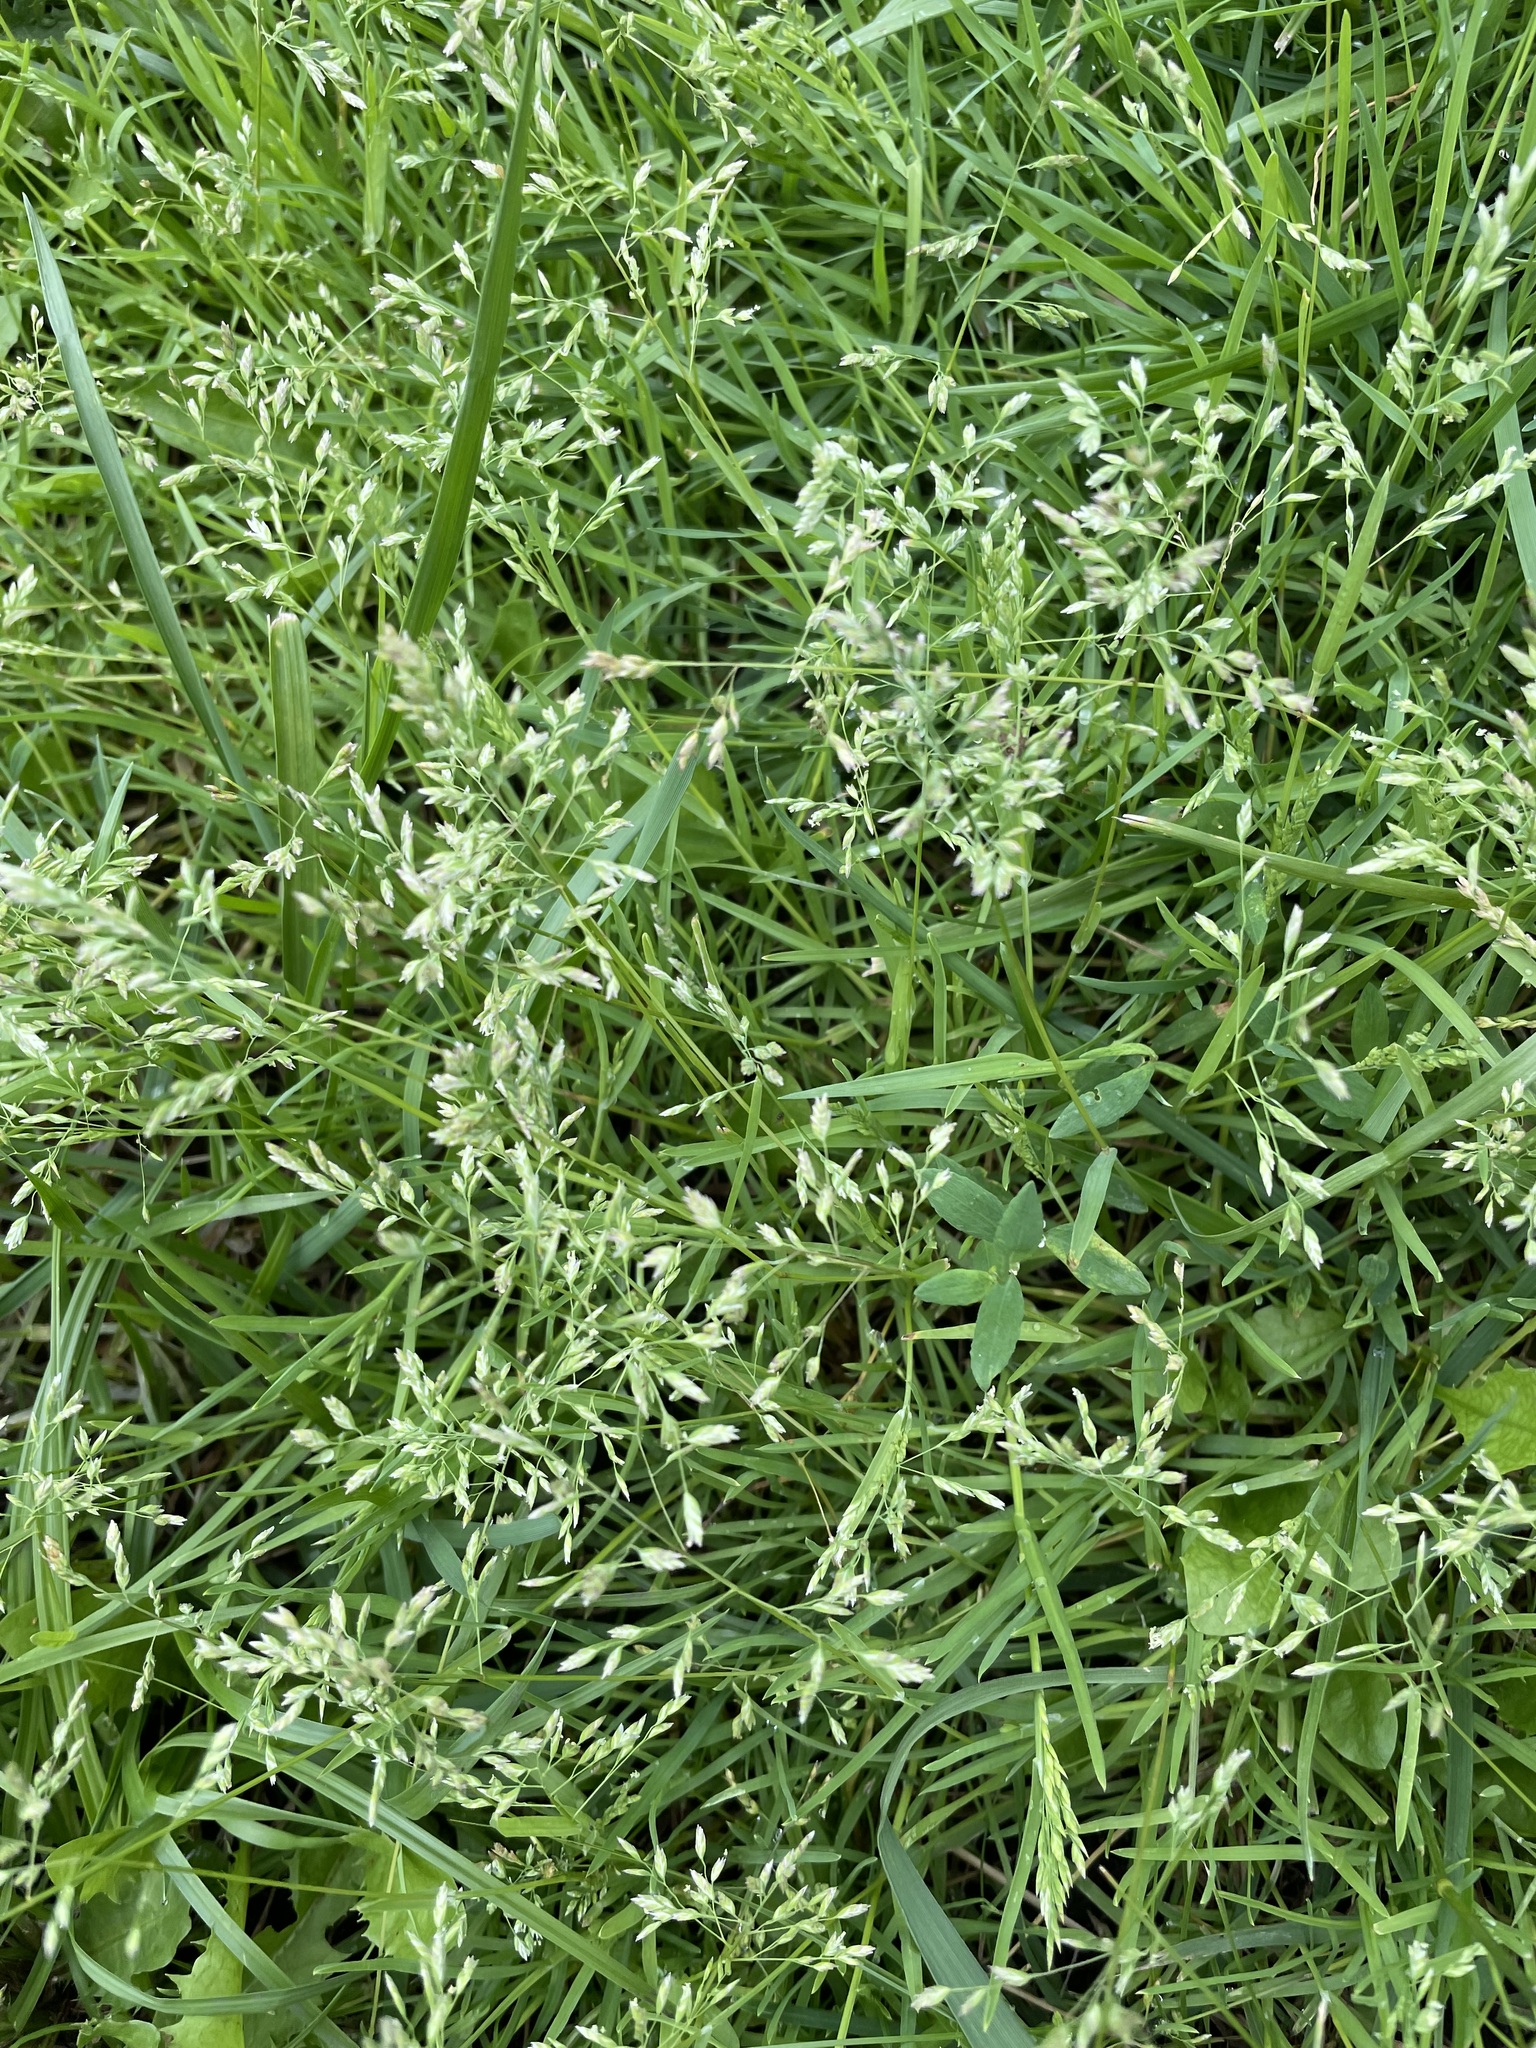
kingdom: Plantae
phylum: Tracheophyta
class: Liliopsida
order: Poales
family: Poaceae
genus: Poa
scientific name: Poa annua
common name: Annual bluegrass
